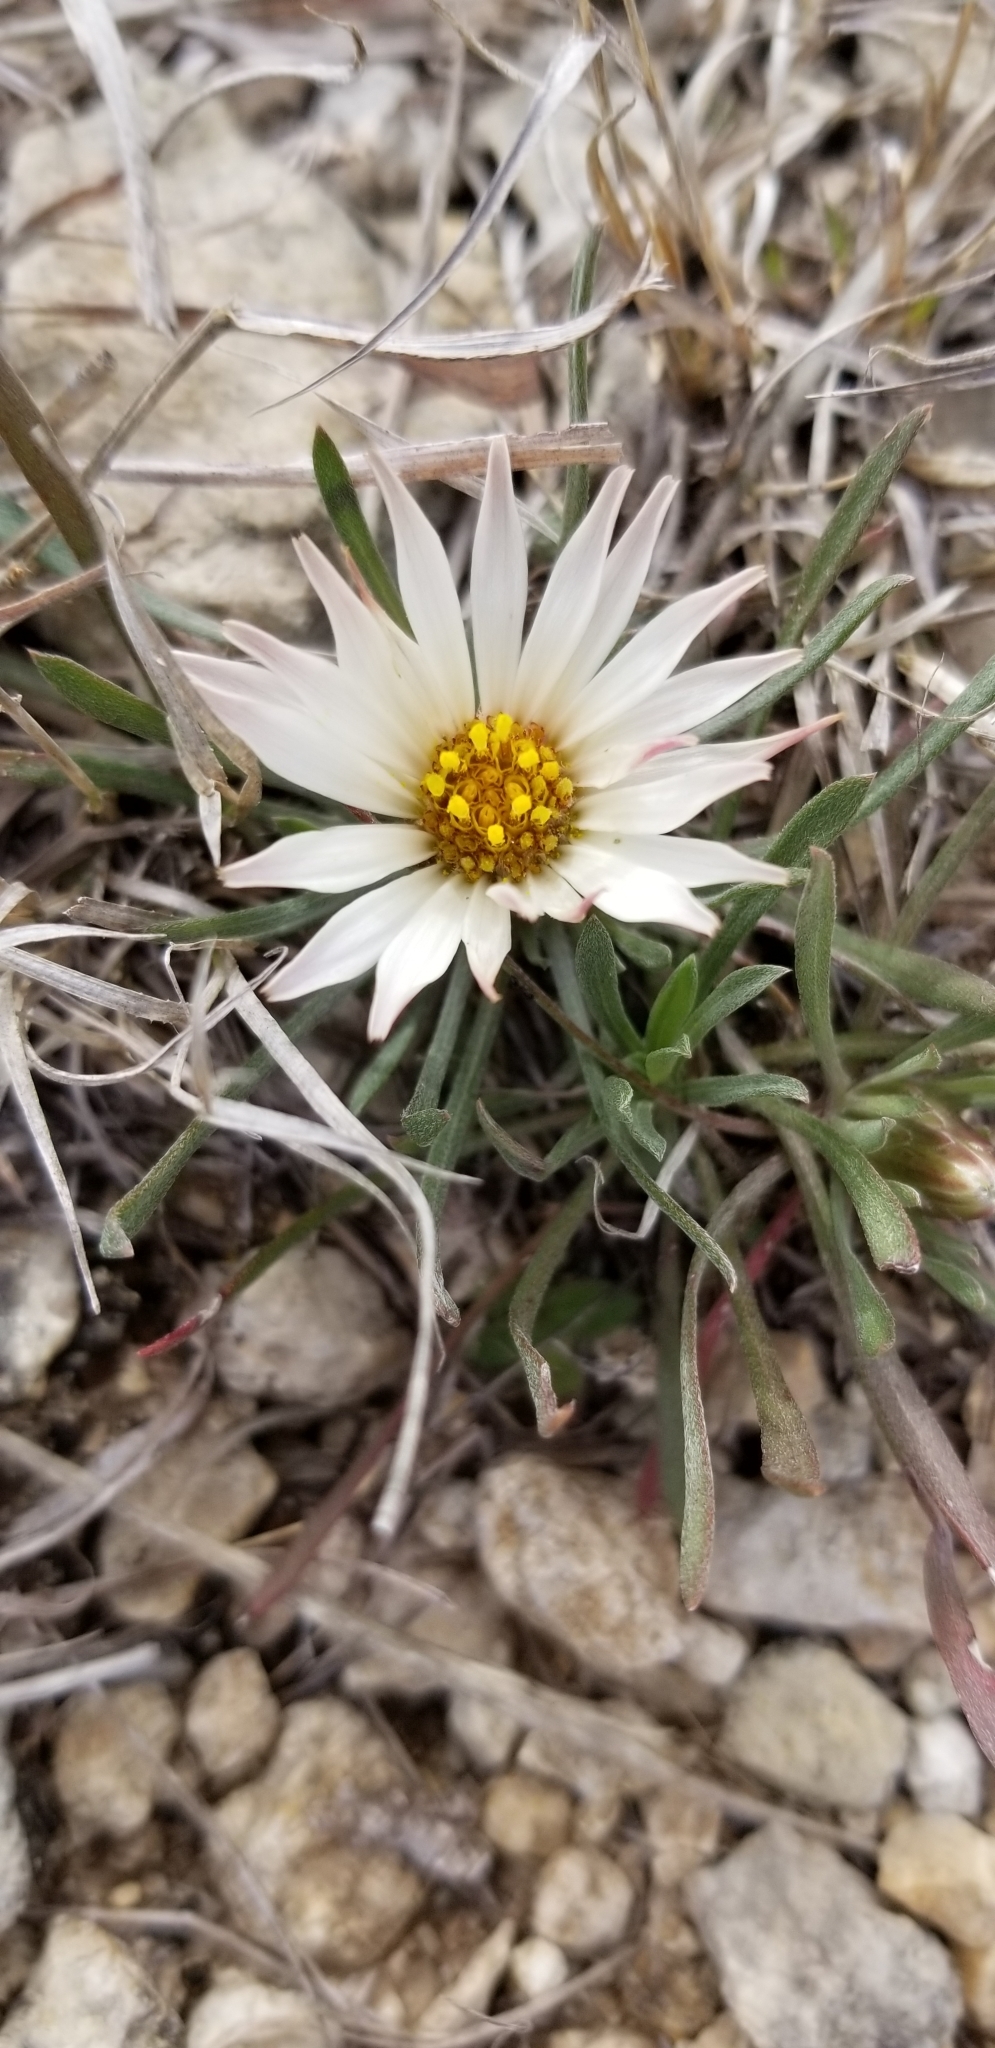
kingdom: Plantae
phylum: Tracheophyta
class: Magnoliopsida
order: Asterales
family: Asteraceae
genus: Townsendia
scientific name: Townsendia exscapa
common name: Dwarf townsendia
